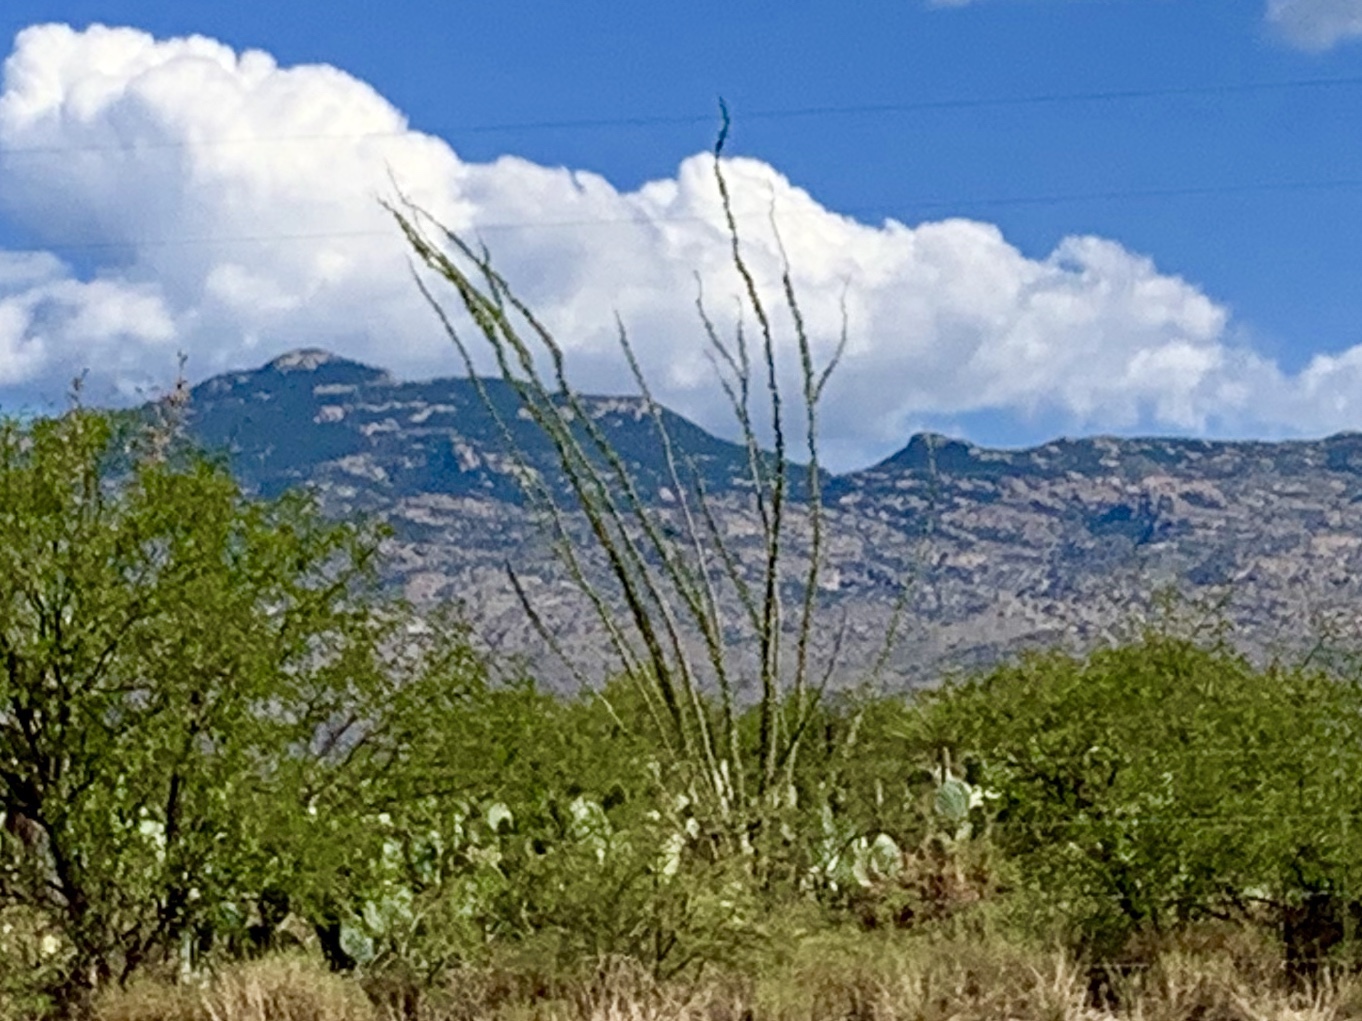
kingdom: Plantae
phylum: Tracheophyta
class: Magnoliopsida
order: Ericales
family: Fouquieriaceae
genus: Fouquieria
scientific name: Fouquieria splendens
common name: Vine-cactus
